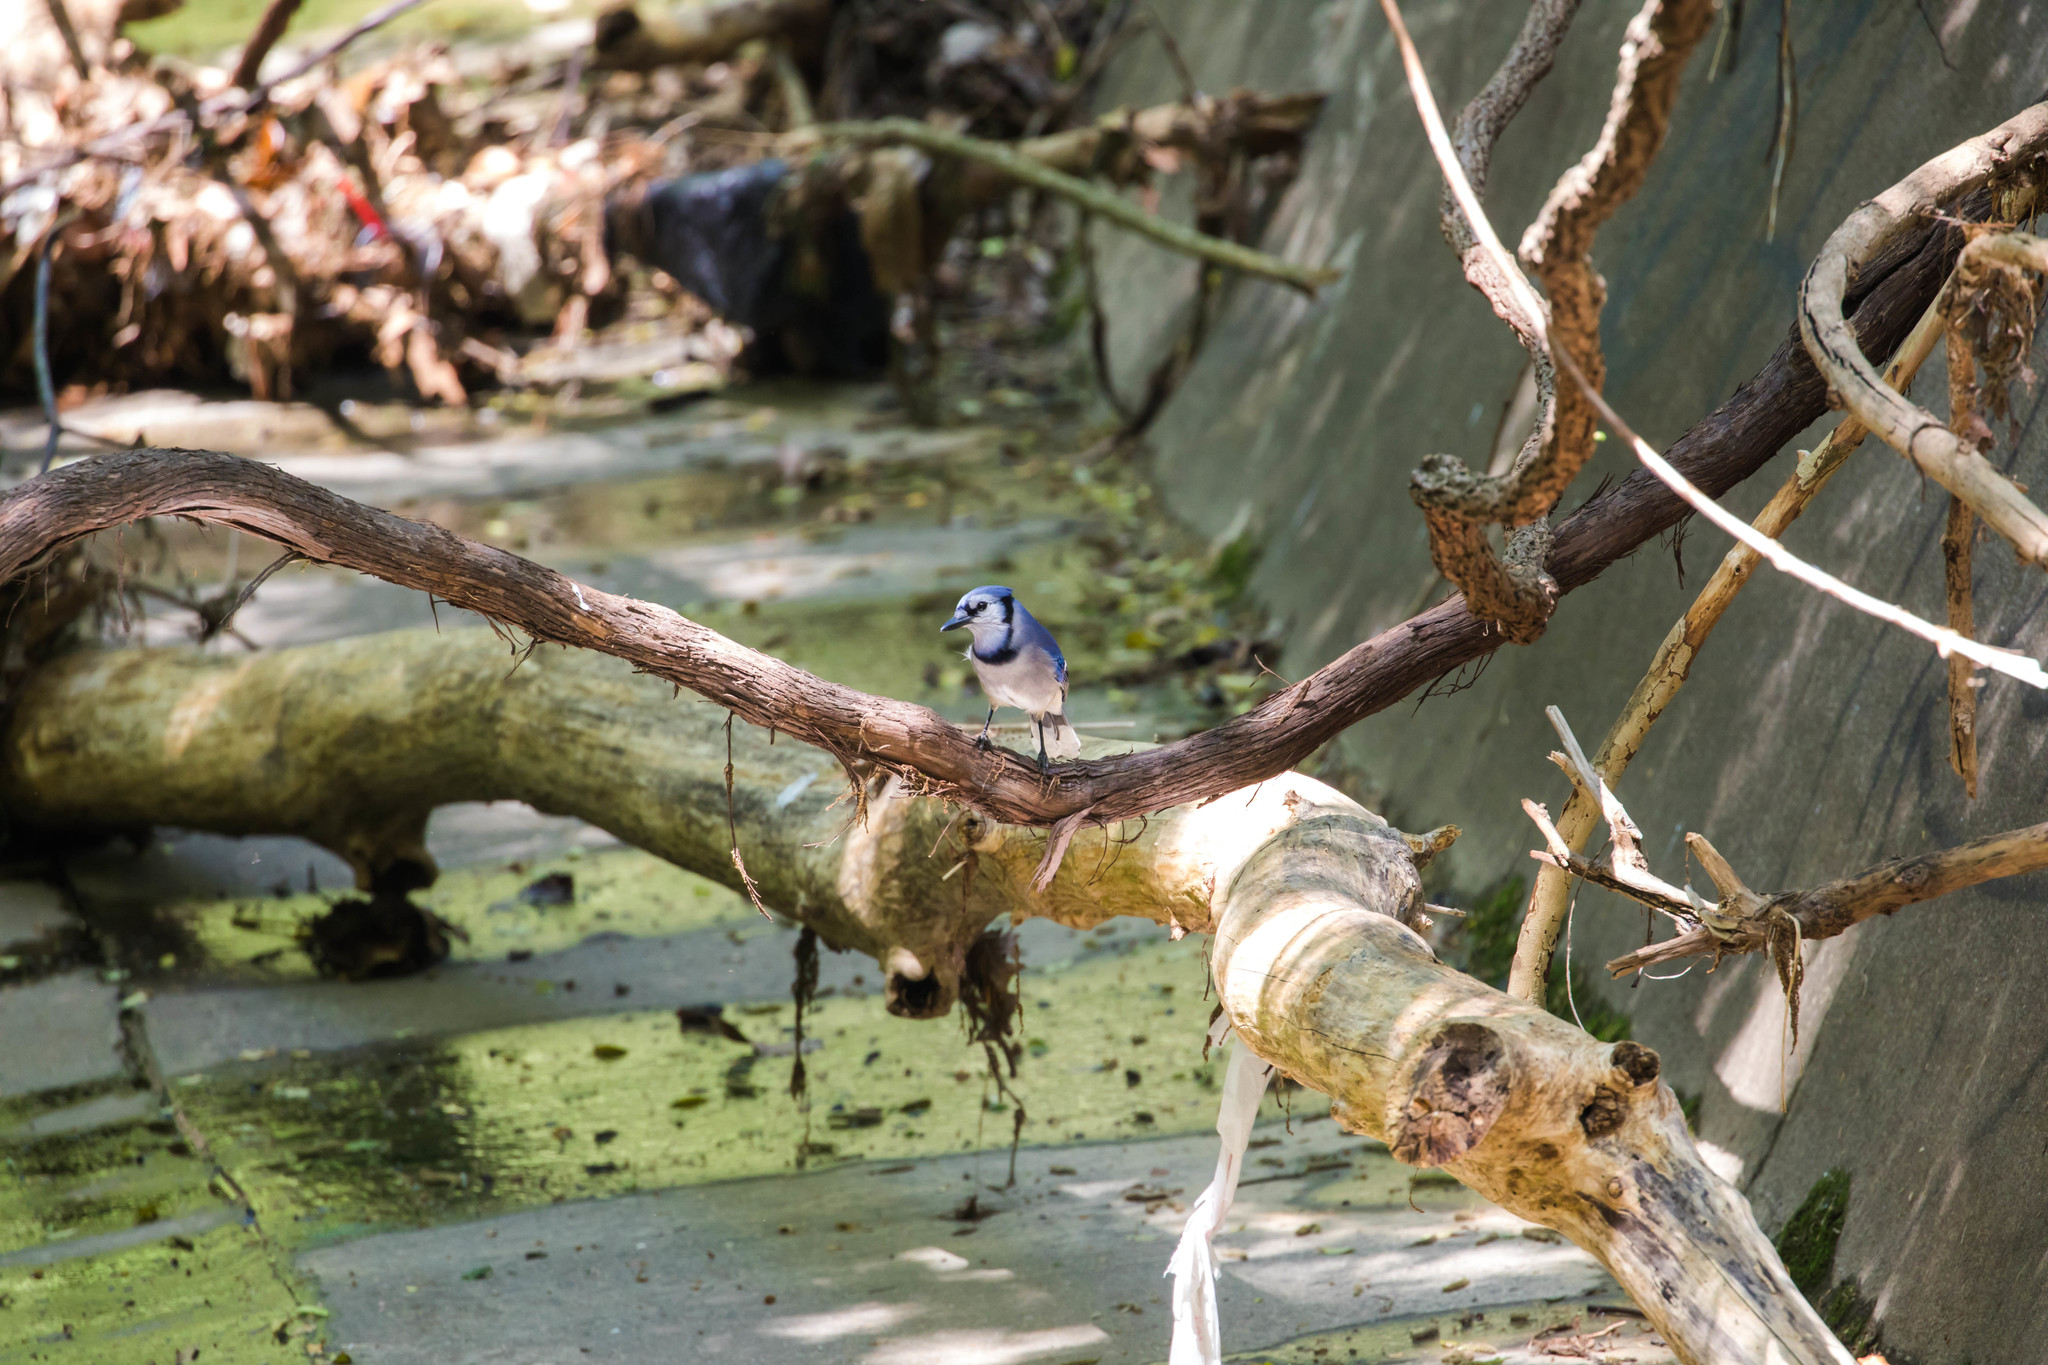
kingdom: Animalia
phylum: Chordata
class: Aves
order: Passeriformes
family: Corvidae
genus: Cyanocitta
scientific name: Cyanocitta cristata
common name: Blue jay
